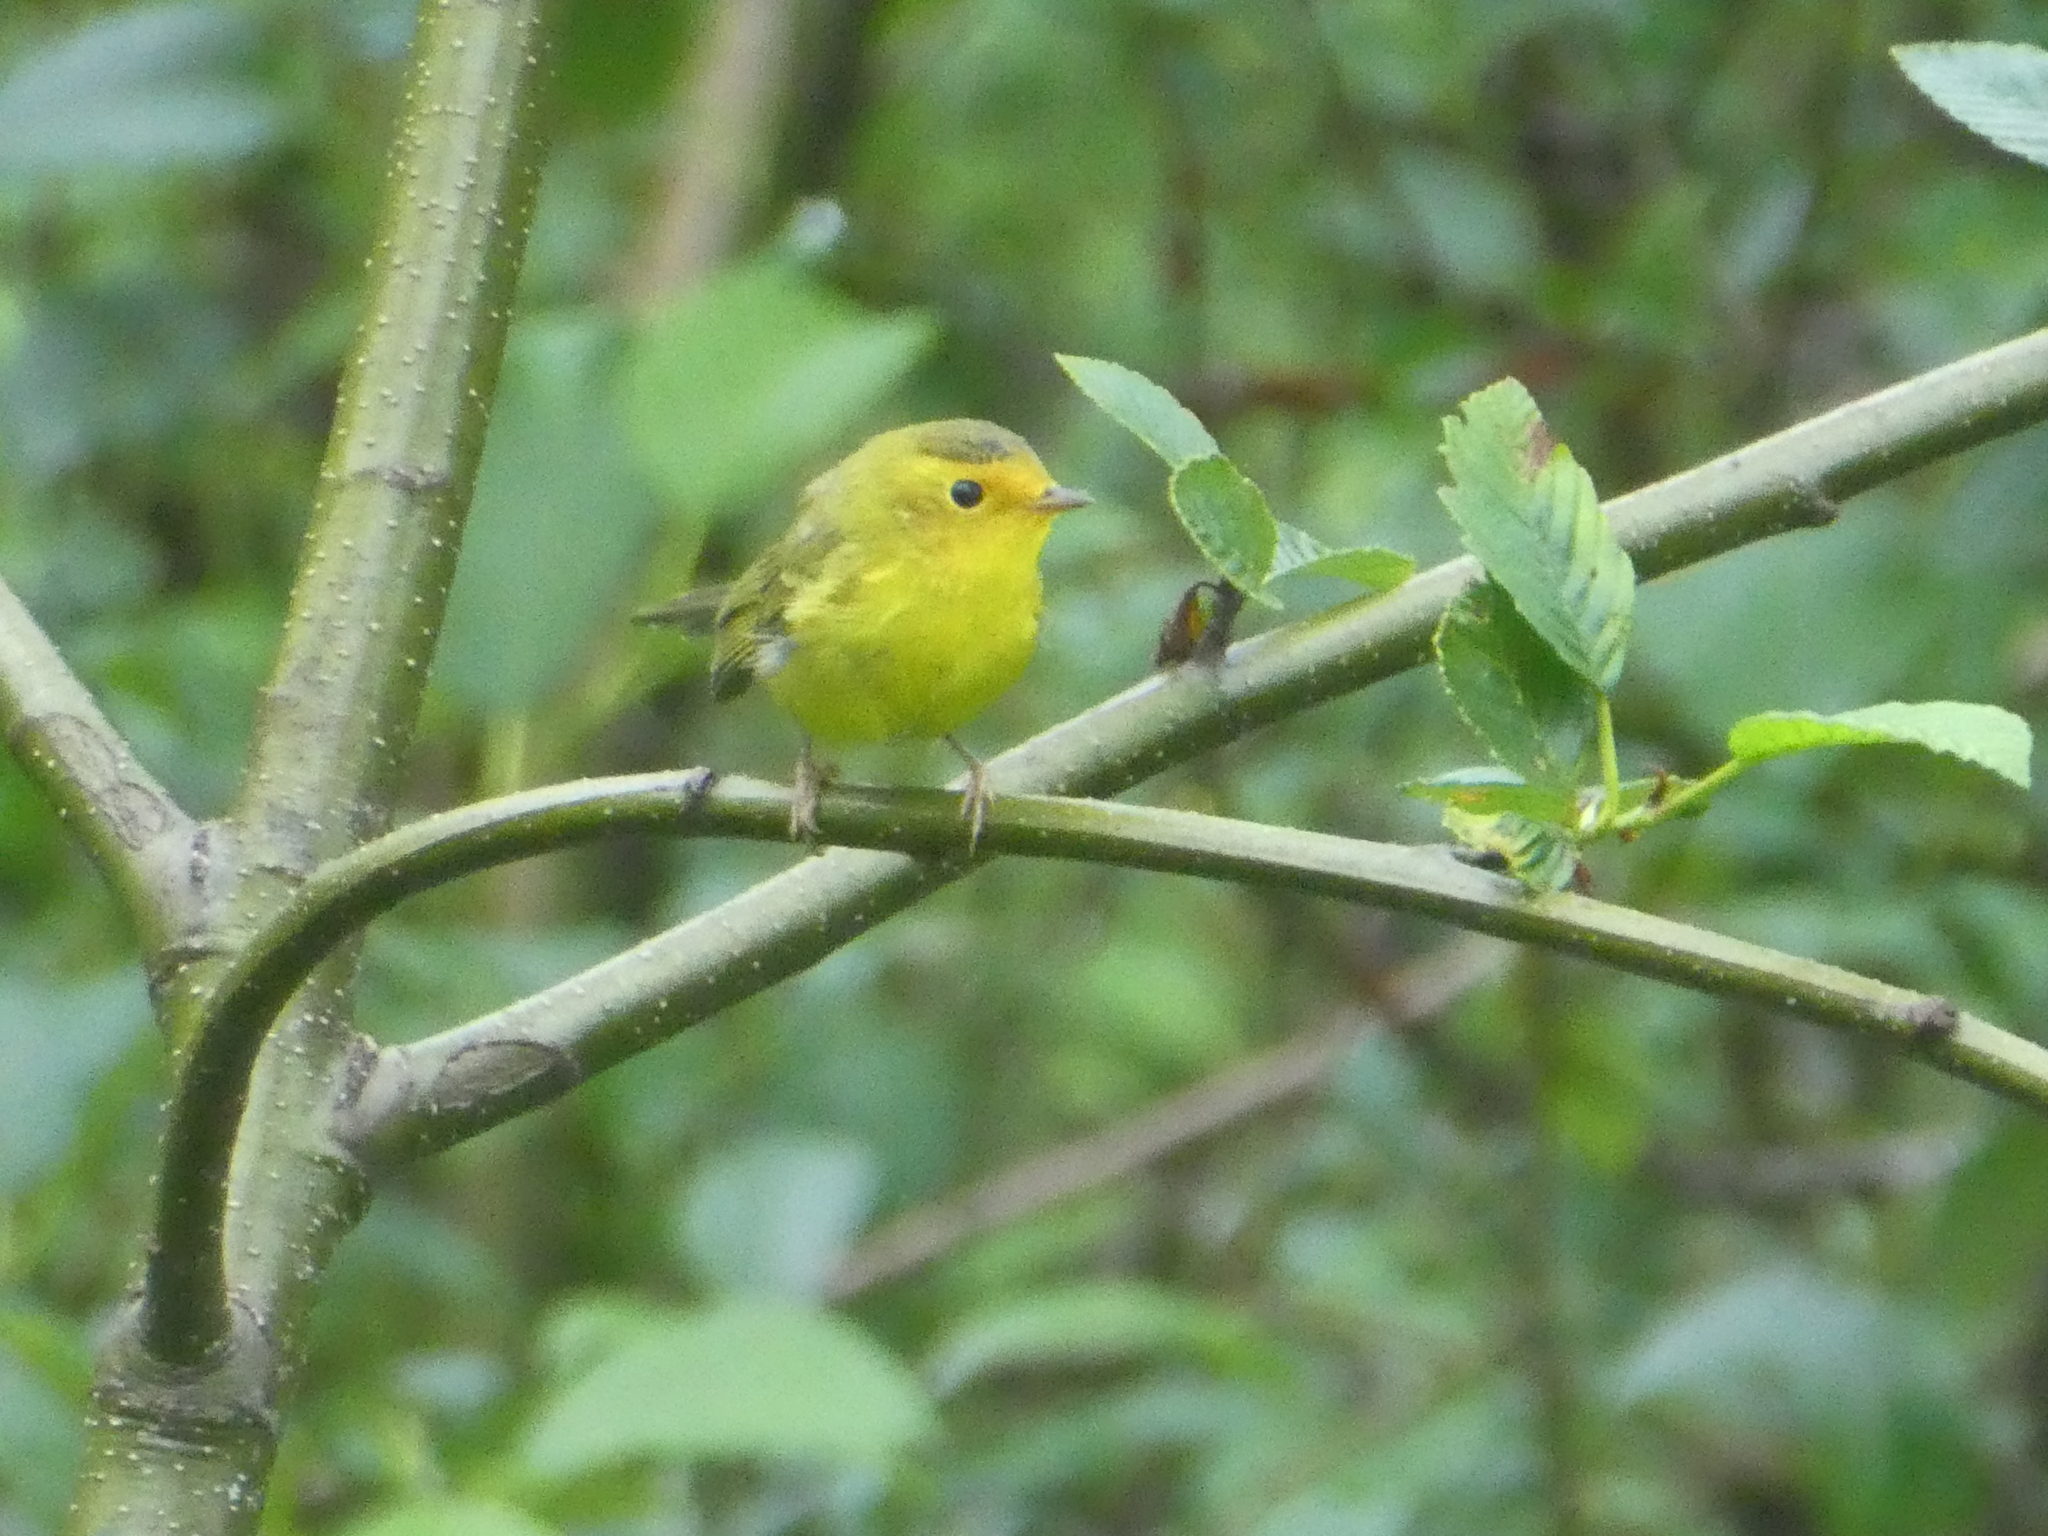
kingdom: Animalia
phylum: Chordata
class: Aves
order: Passeriformes
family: Parulidae
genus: Cardellina
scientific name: Cardellina pusilla
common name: Wilson's warbler
